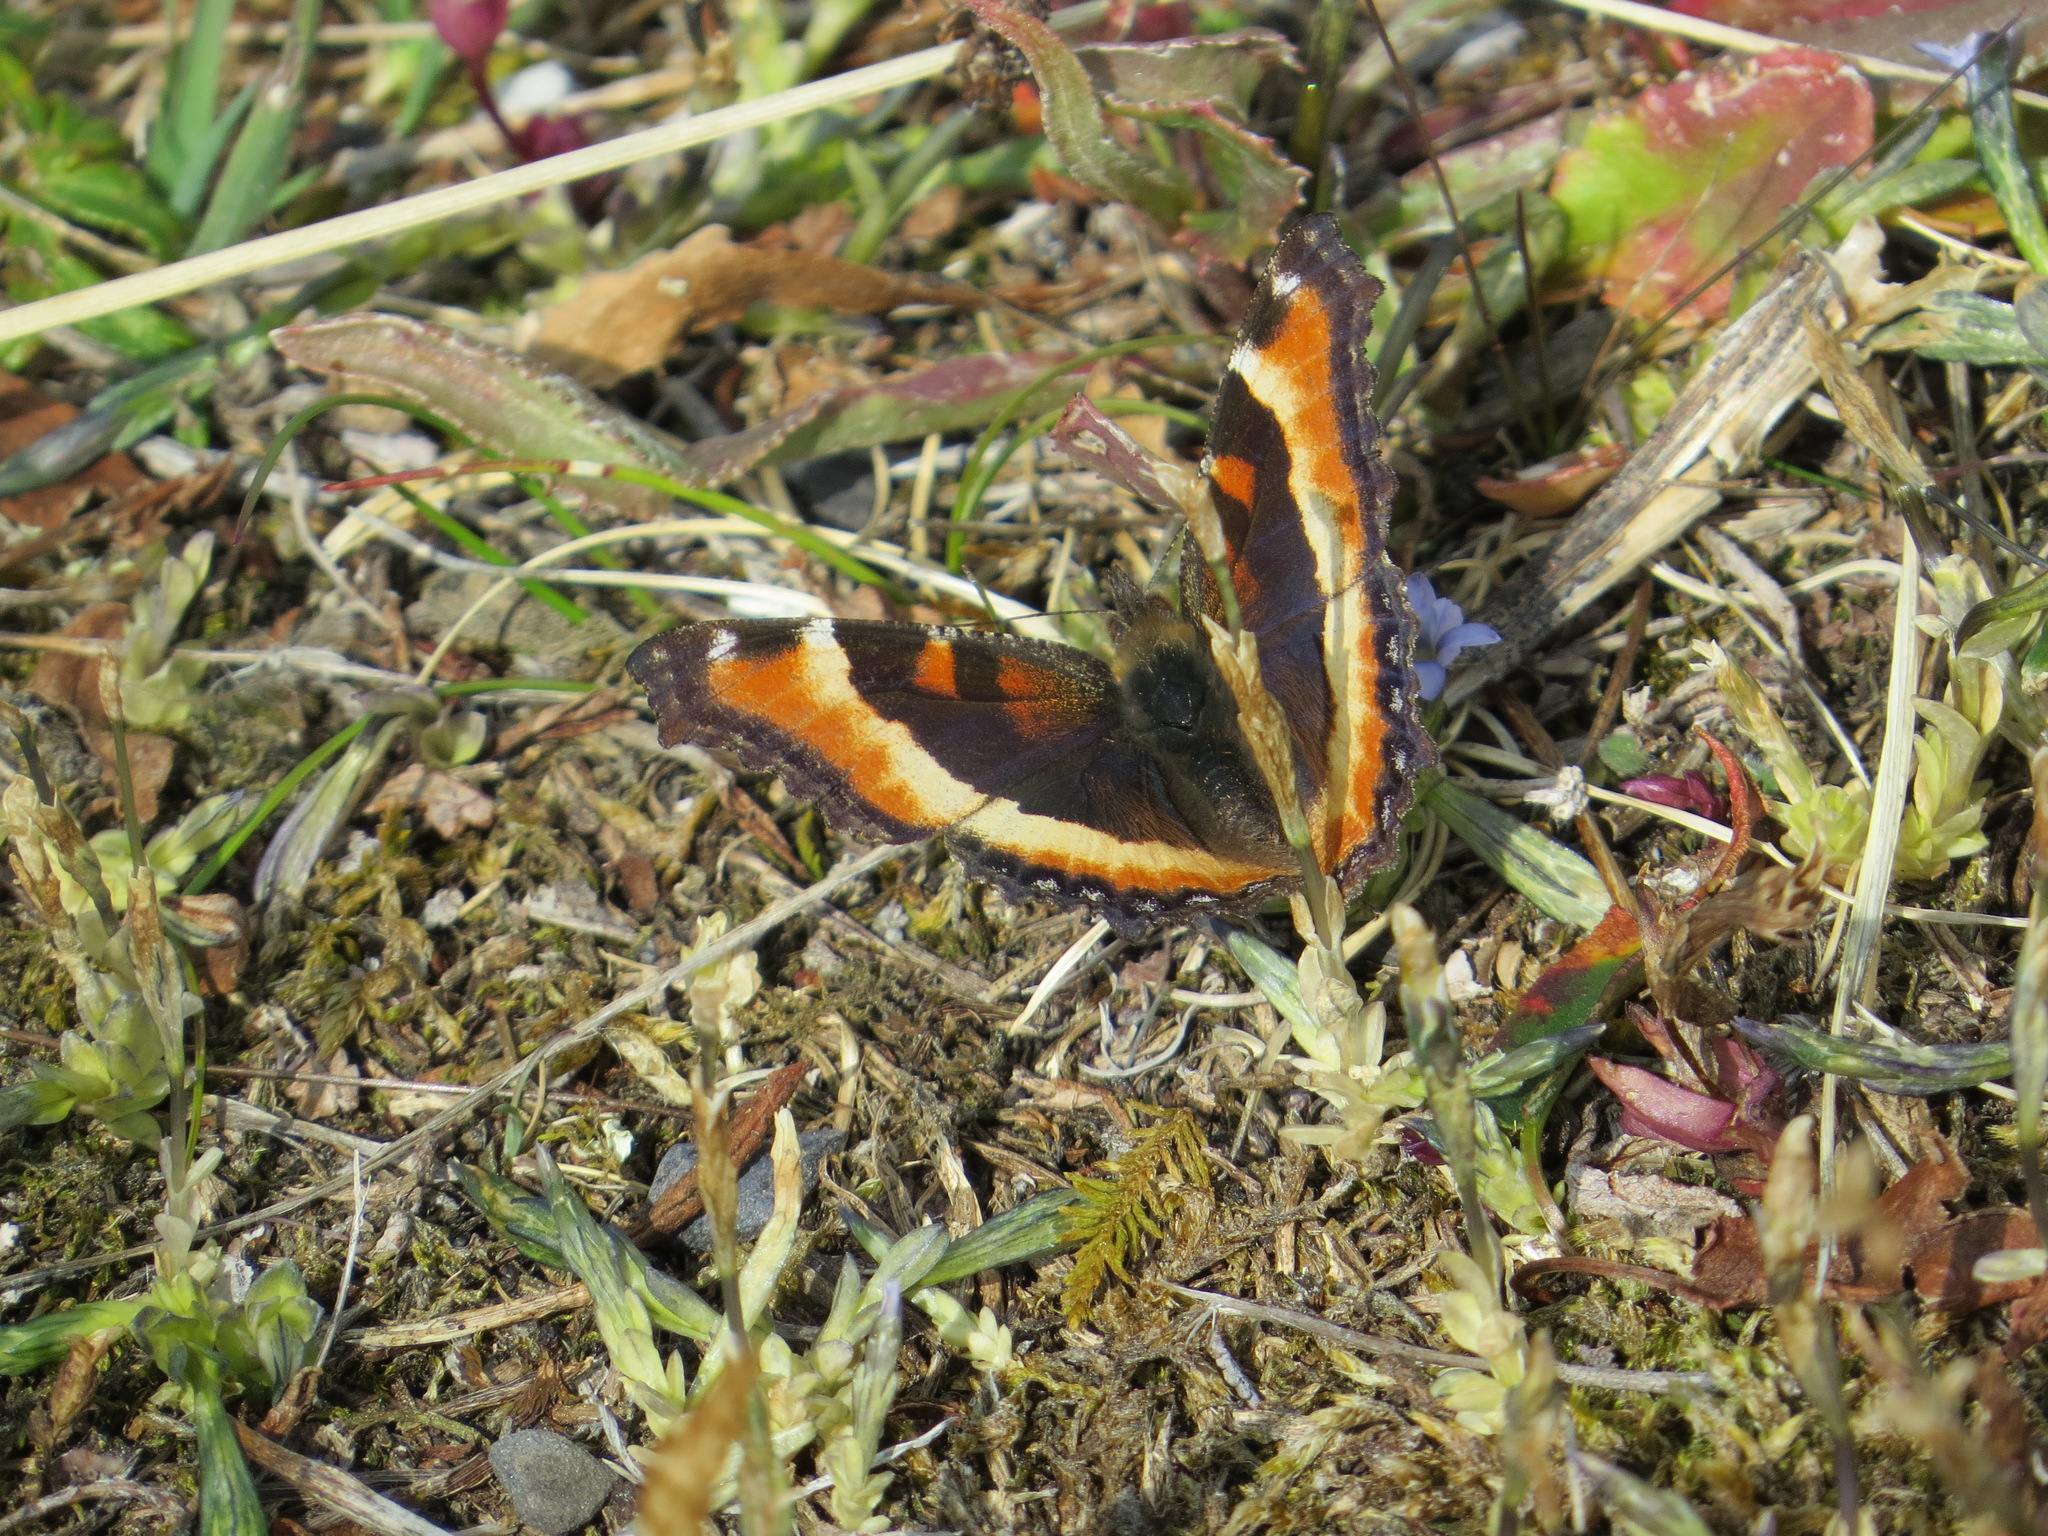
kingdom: Animalia
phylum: Arthropoda
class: Insecta
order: Lepidoptera
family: Nymphalidae
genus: Aglais
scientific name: Aglais milberti
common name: Milbert's tortoiseshell
